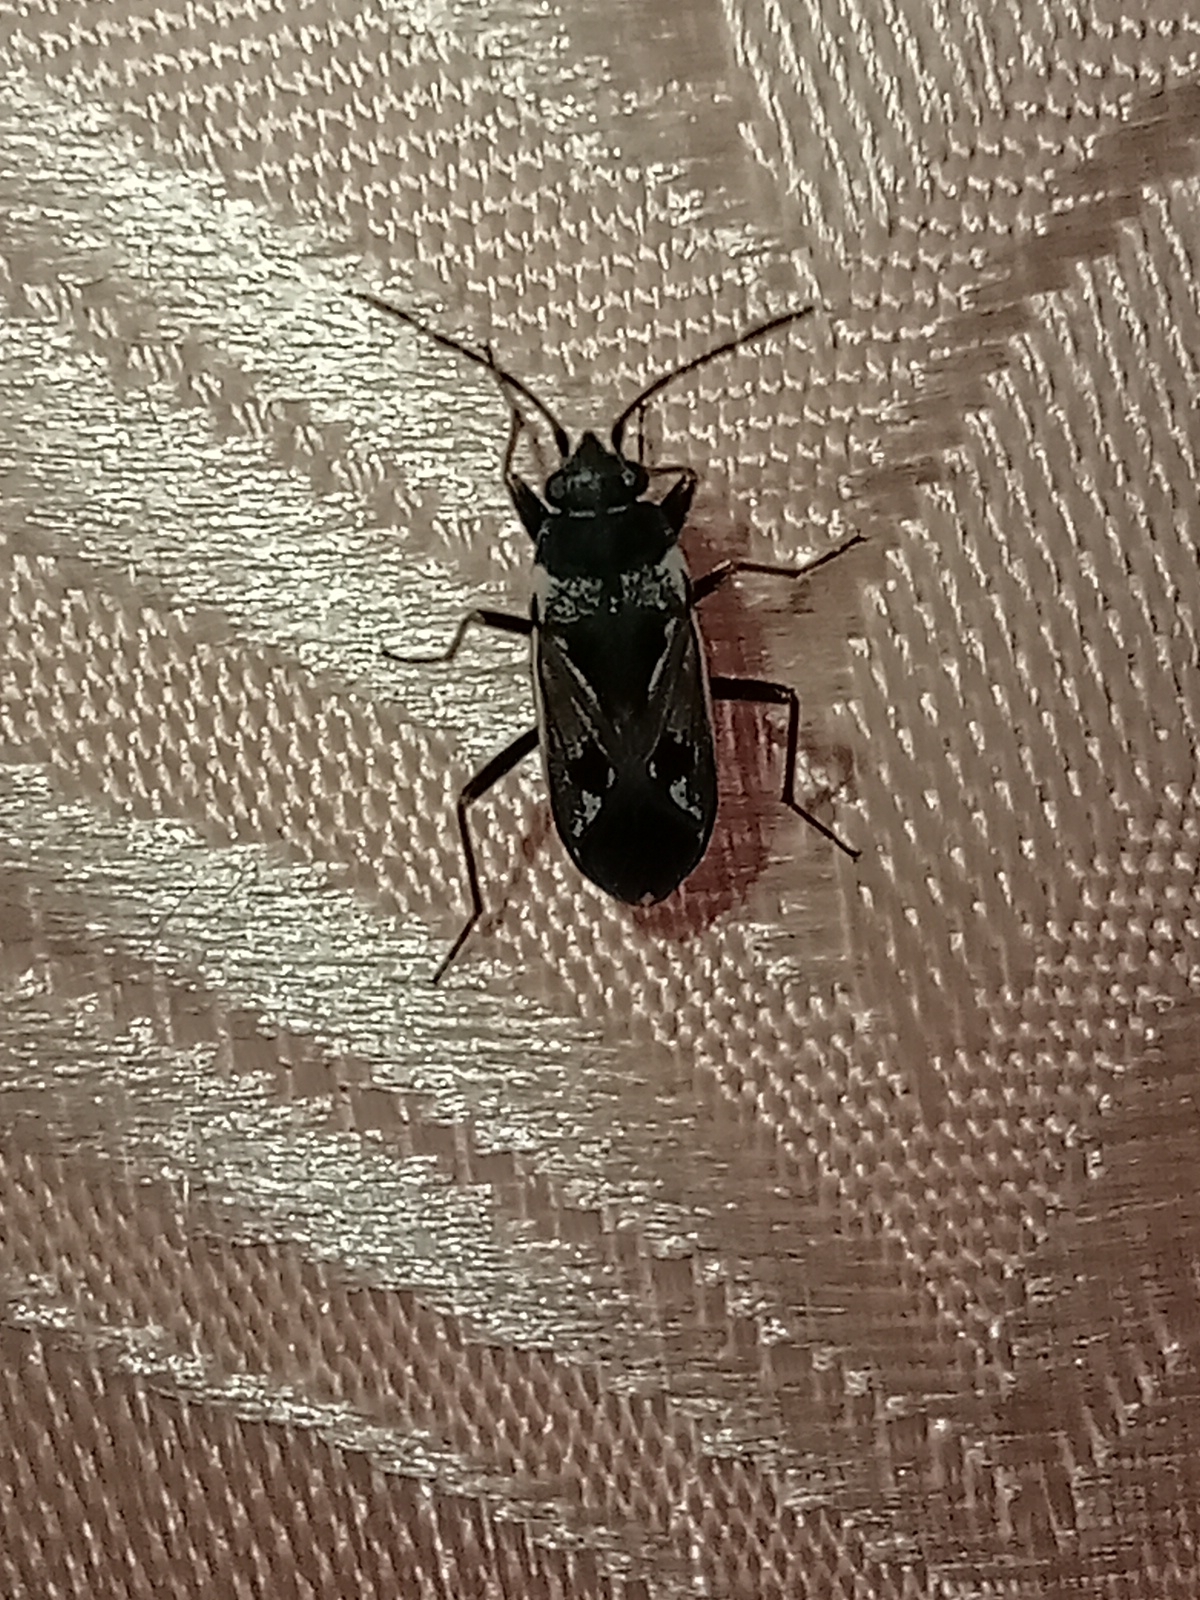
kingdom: Animalia
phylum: Arthropoda
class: Insecta
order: Hemiptera
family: Rhyparochromidae
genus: Rhyparochromus
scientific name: Rhyparochromus vulgaris
